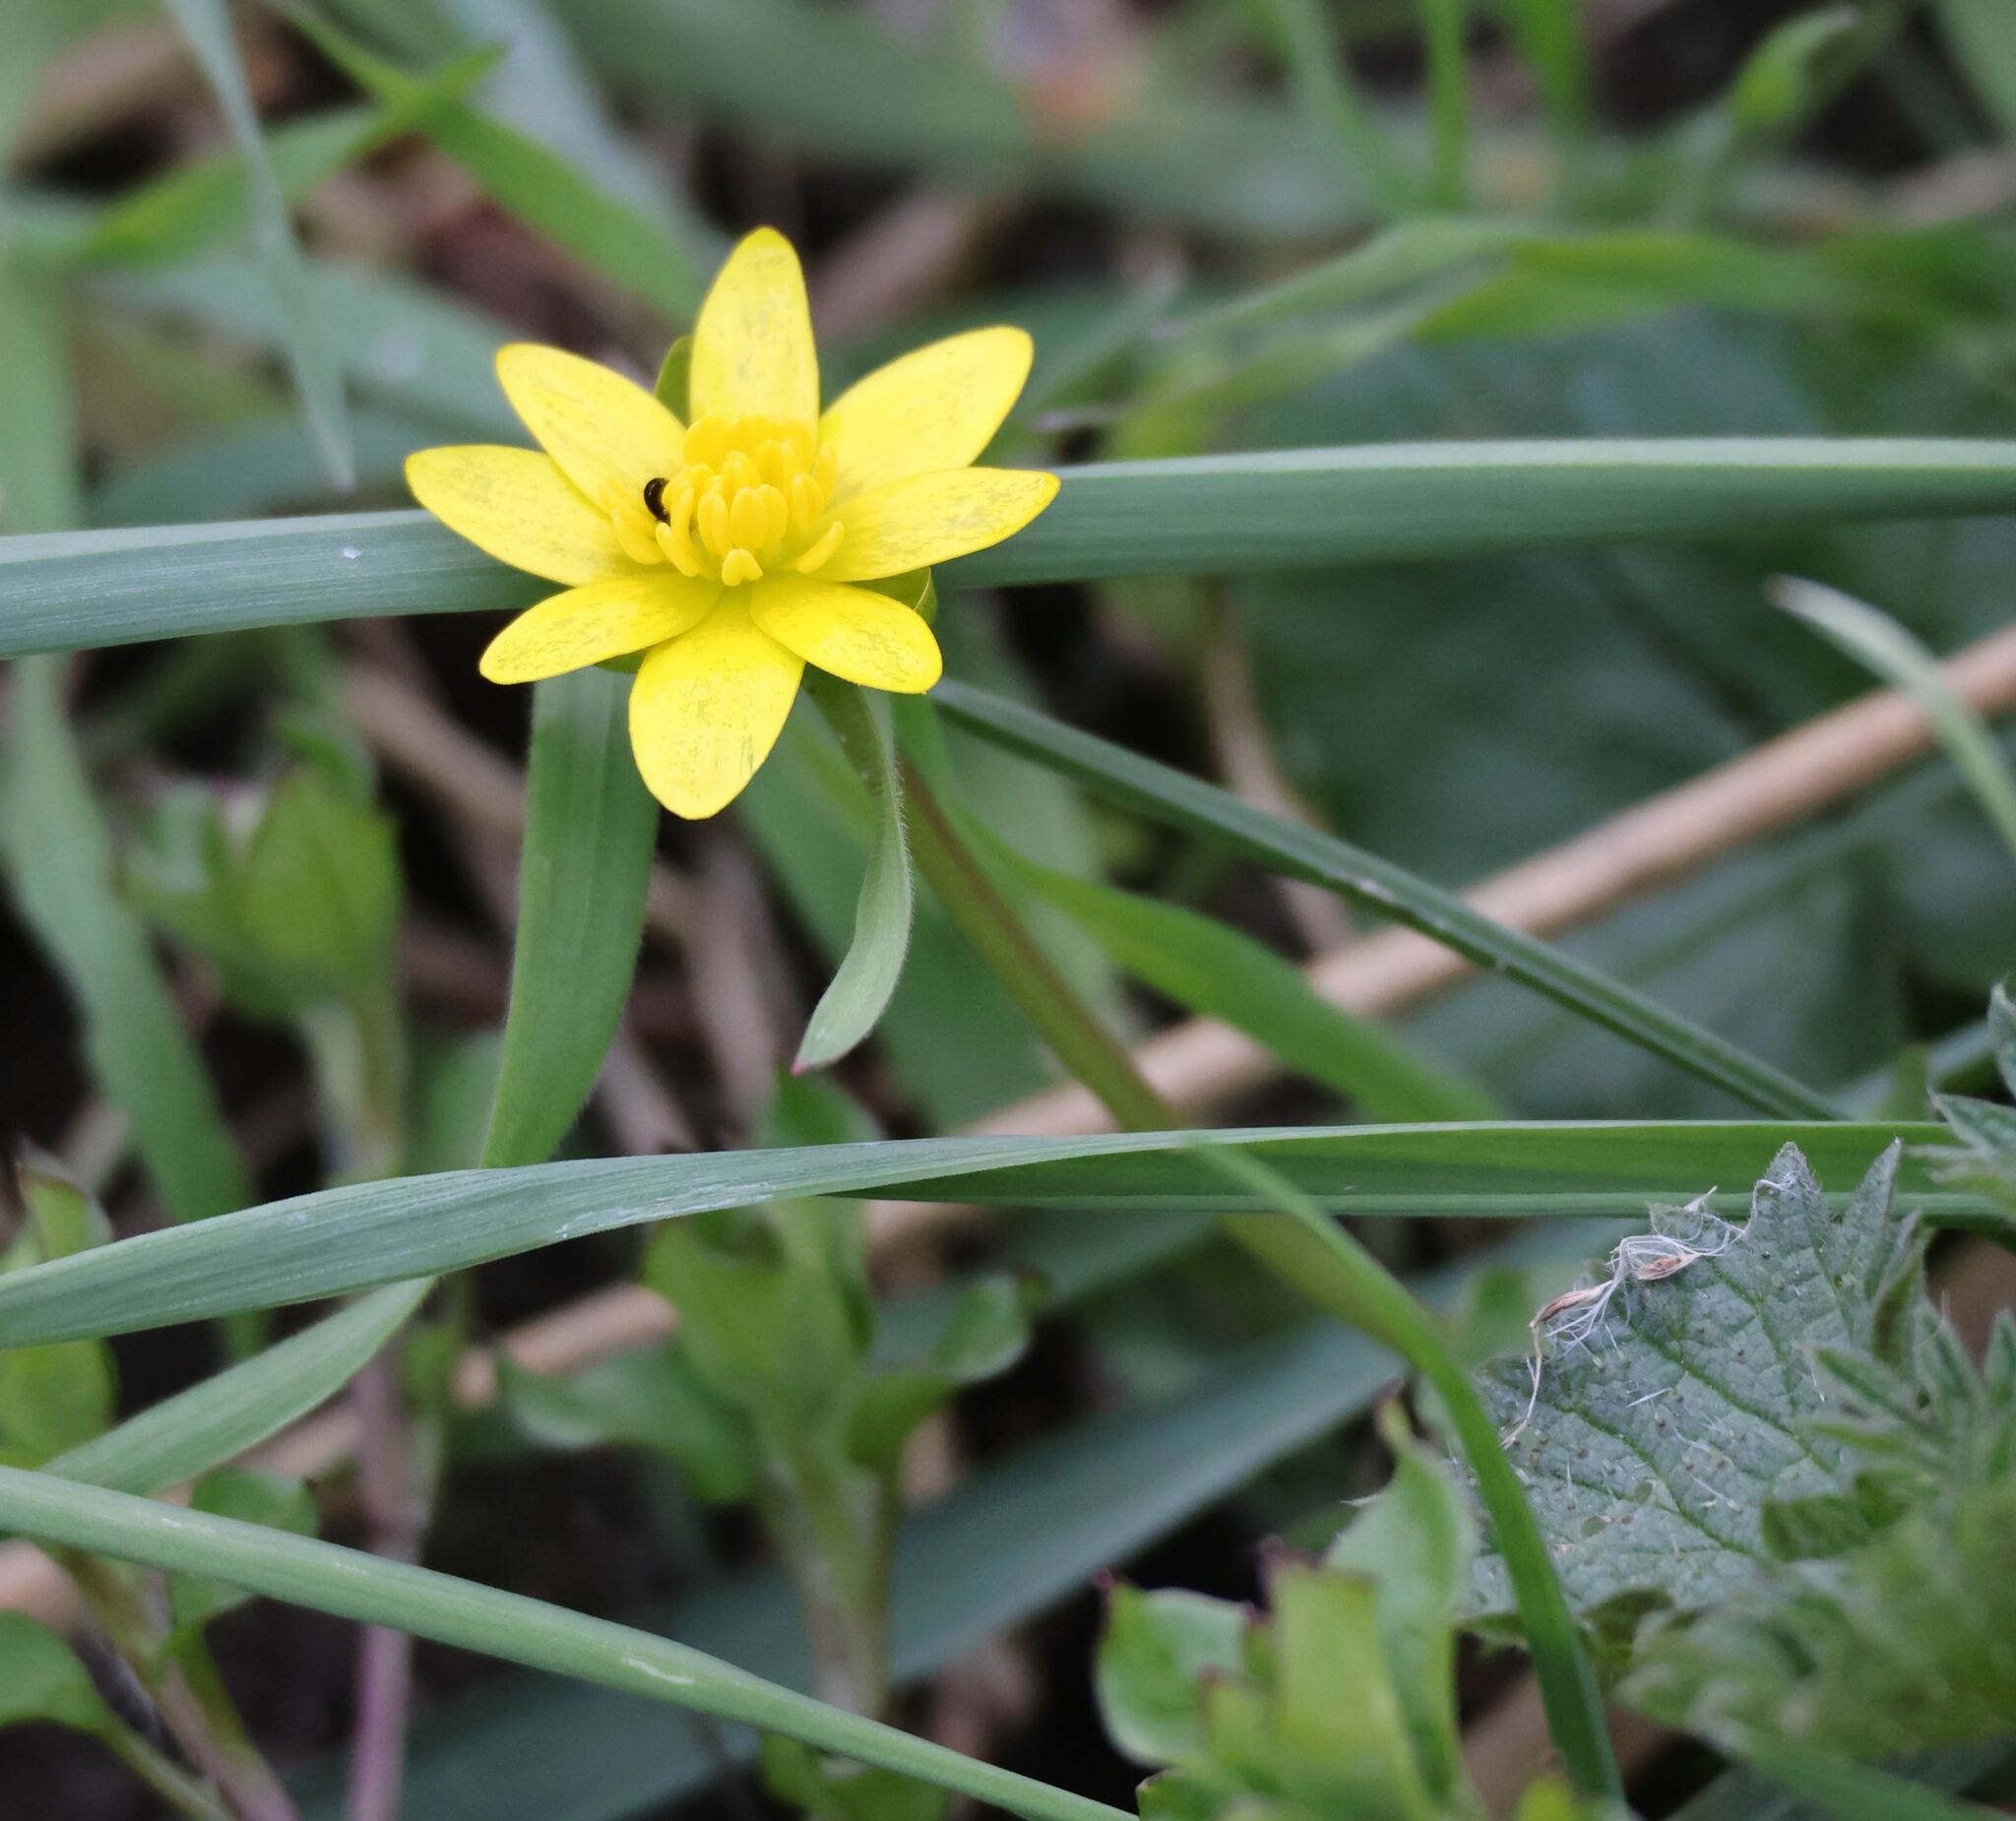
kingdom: Plantae
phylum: Tracheophyta
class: Magnoliopsida
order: Ranunculales
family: Ranunculaceae
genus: Ficaria
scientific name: Ficaria verna
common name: Lesser celandine
